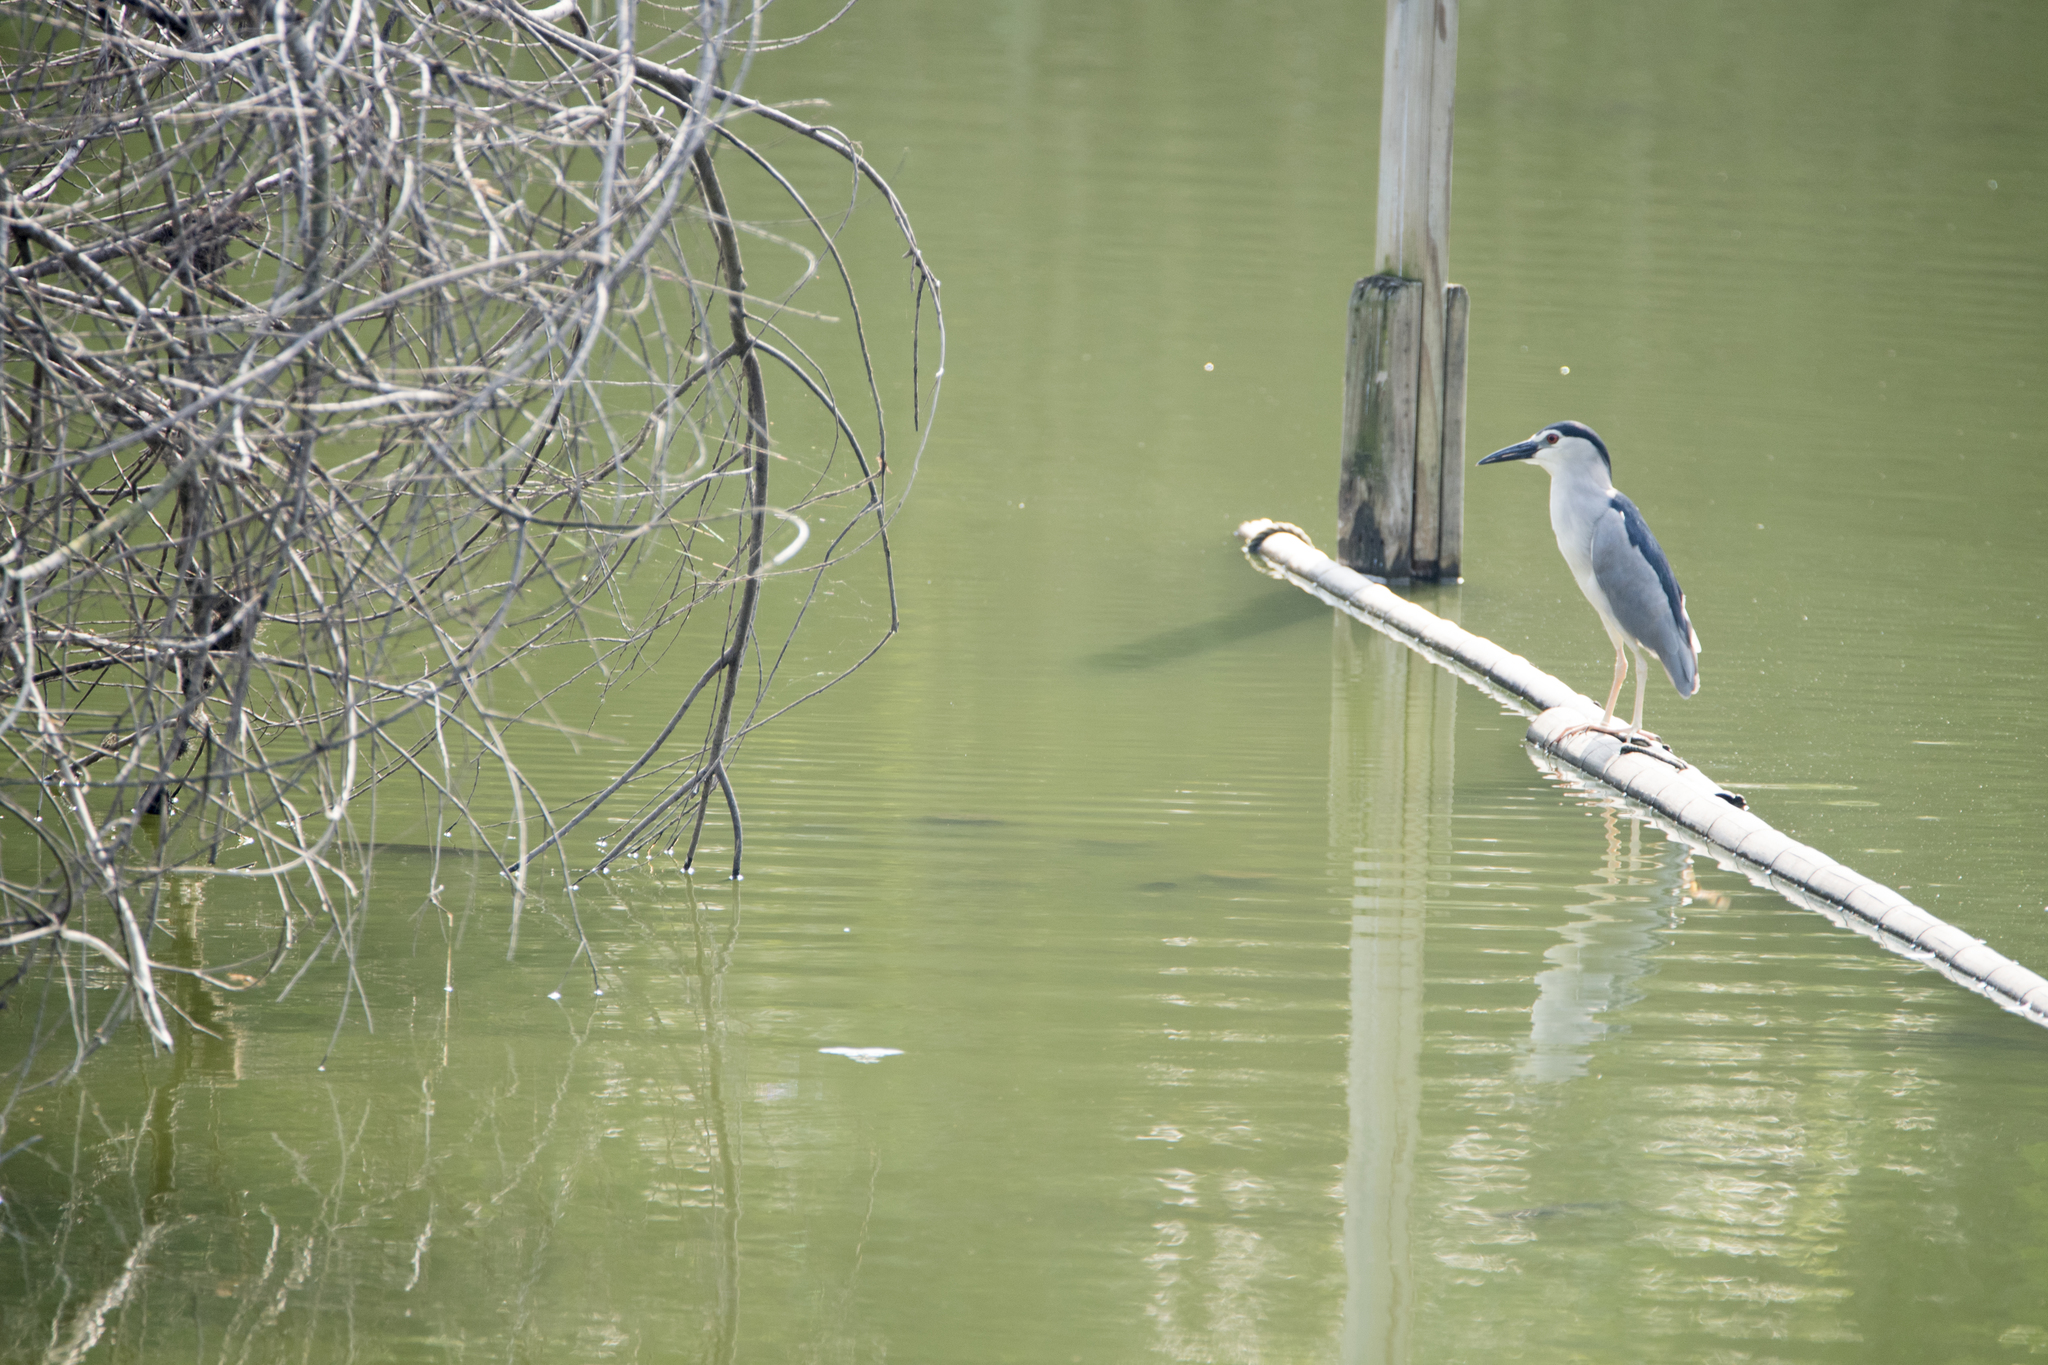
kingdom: Animalia
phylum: Chordata
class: Aves
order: Pelecaniformes
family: Ardeidae
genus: Nycticorax
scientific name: Nycticorax nycticorax
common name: Black-crowned night heron
